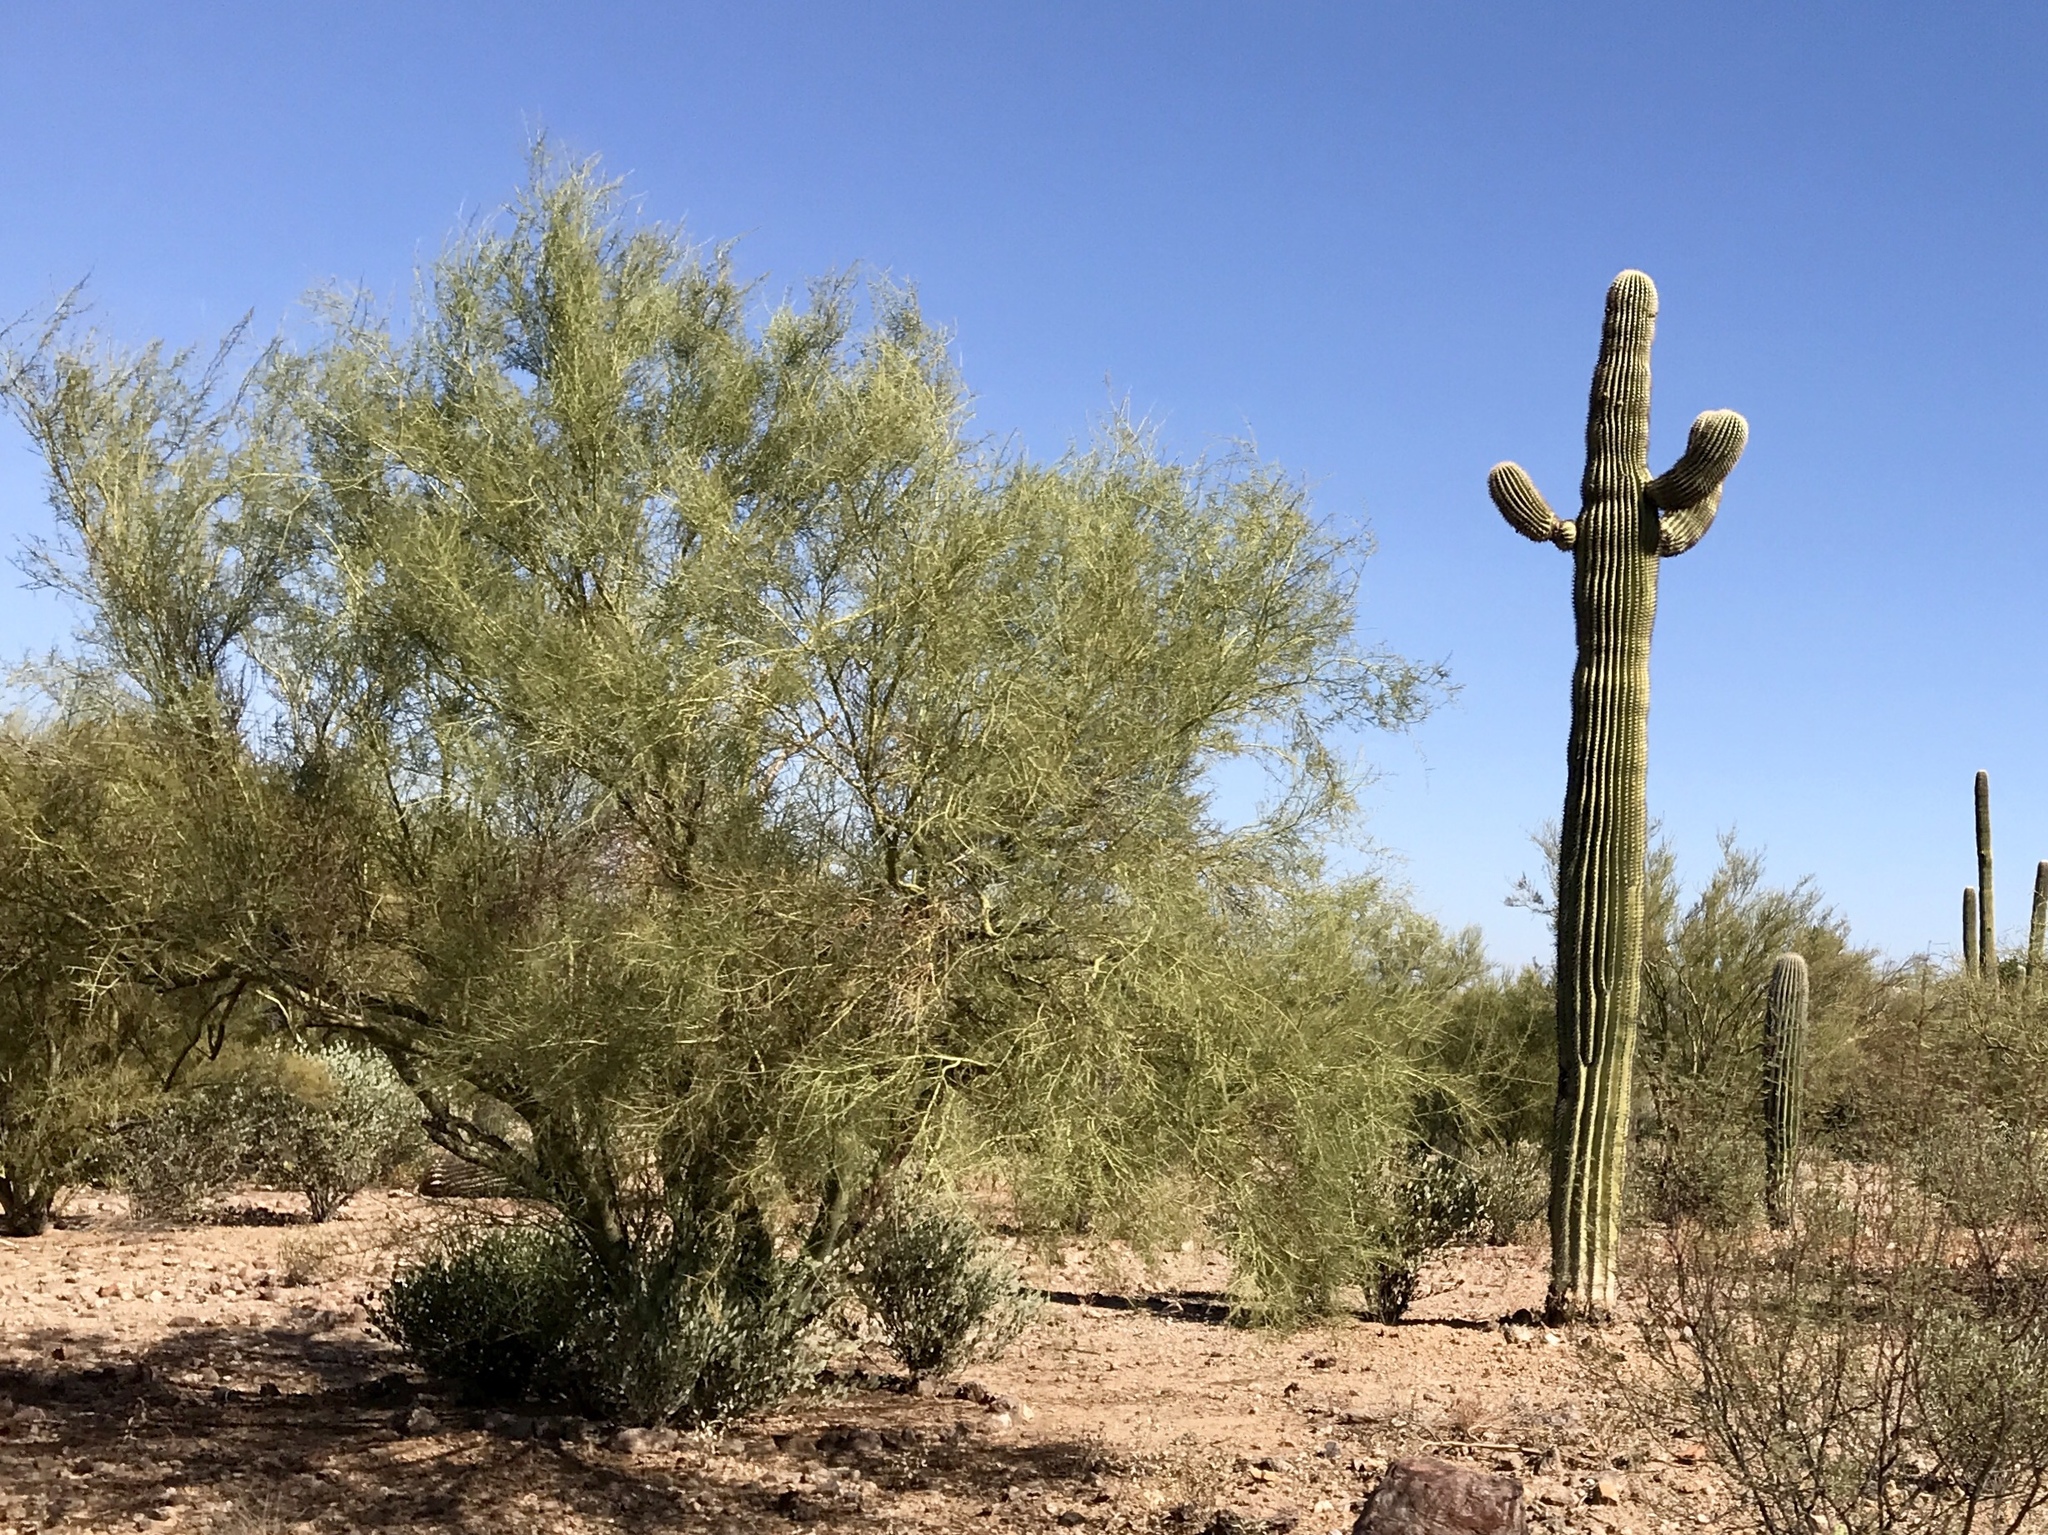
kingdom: Plantae
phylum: Tracheophyta
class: Magnoliopsida
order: Fabales
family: Fabaceae
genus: Parkinsonia
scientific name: Parkinsonia microphylla
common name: Yellow paloverde
